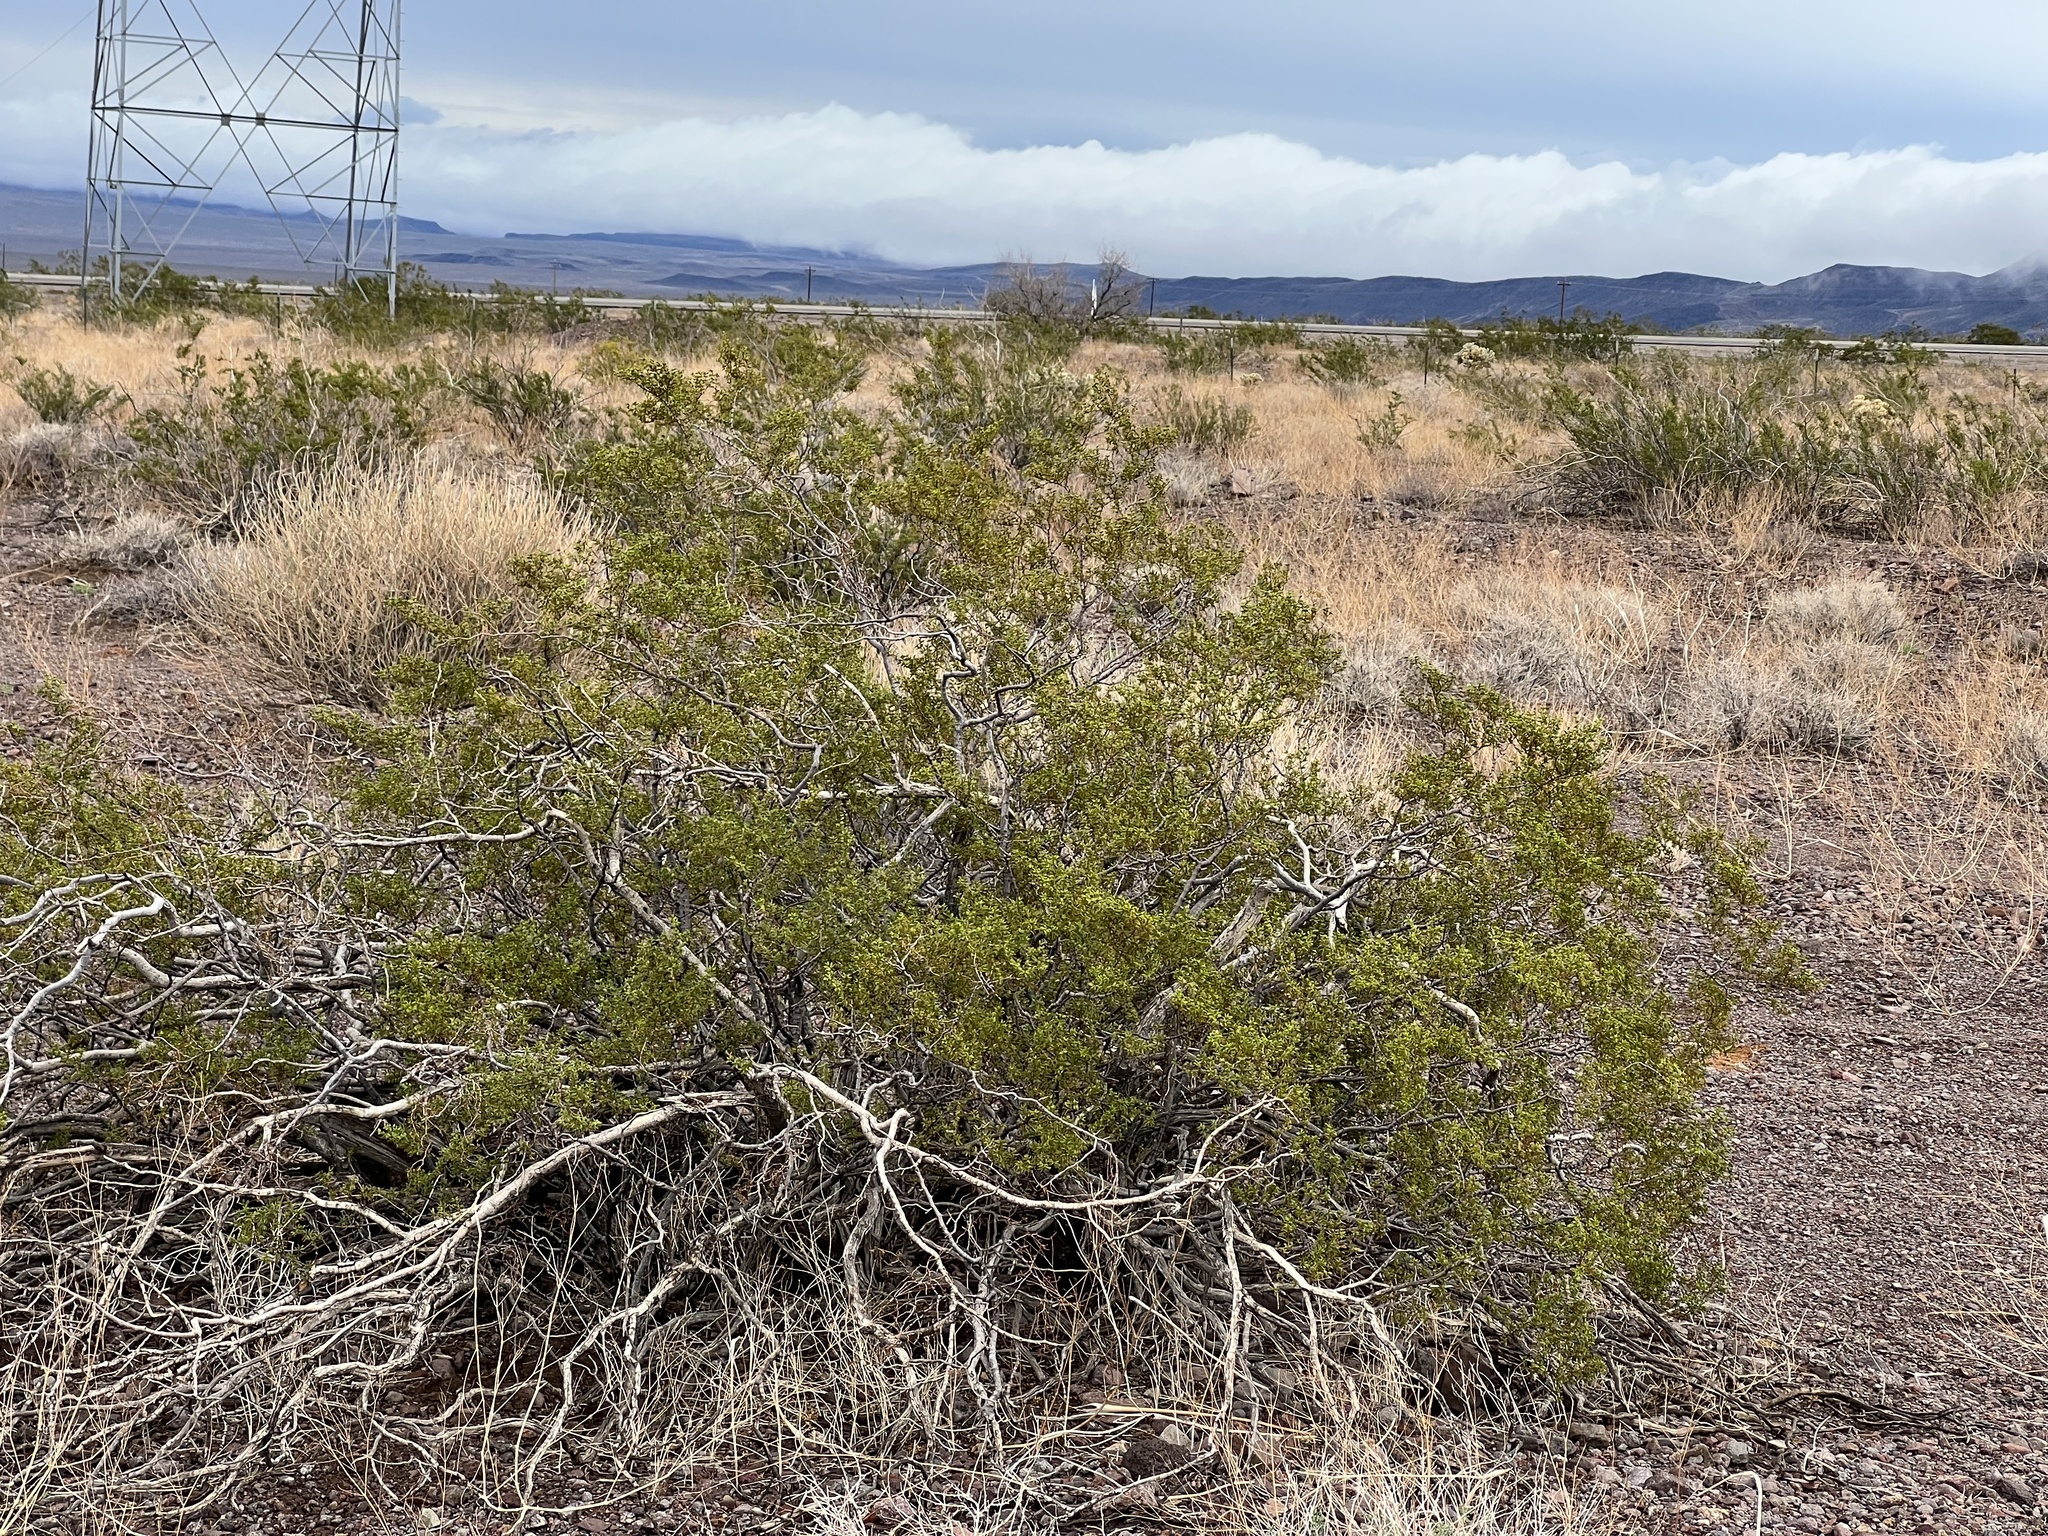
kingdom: Plantae
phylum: Tracheophyta
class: Magnoliopsida
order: Zygophyllales
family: Zygophyllaceae
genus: Larrea
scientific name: Larrea tridentata
